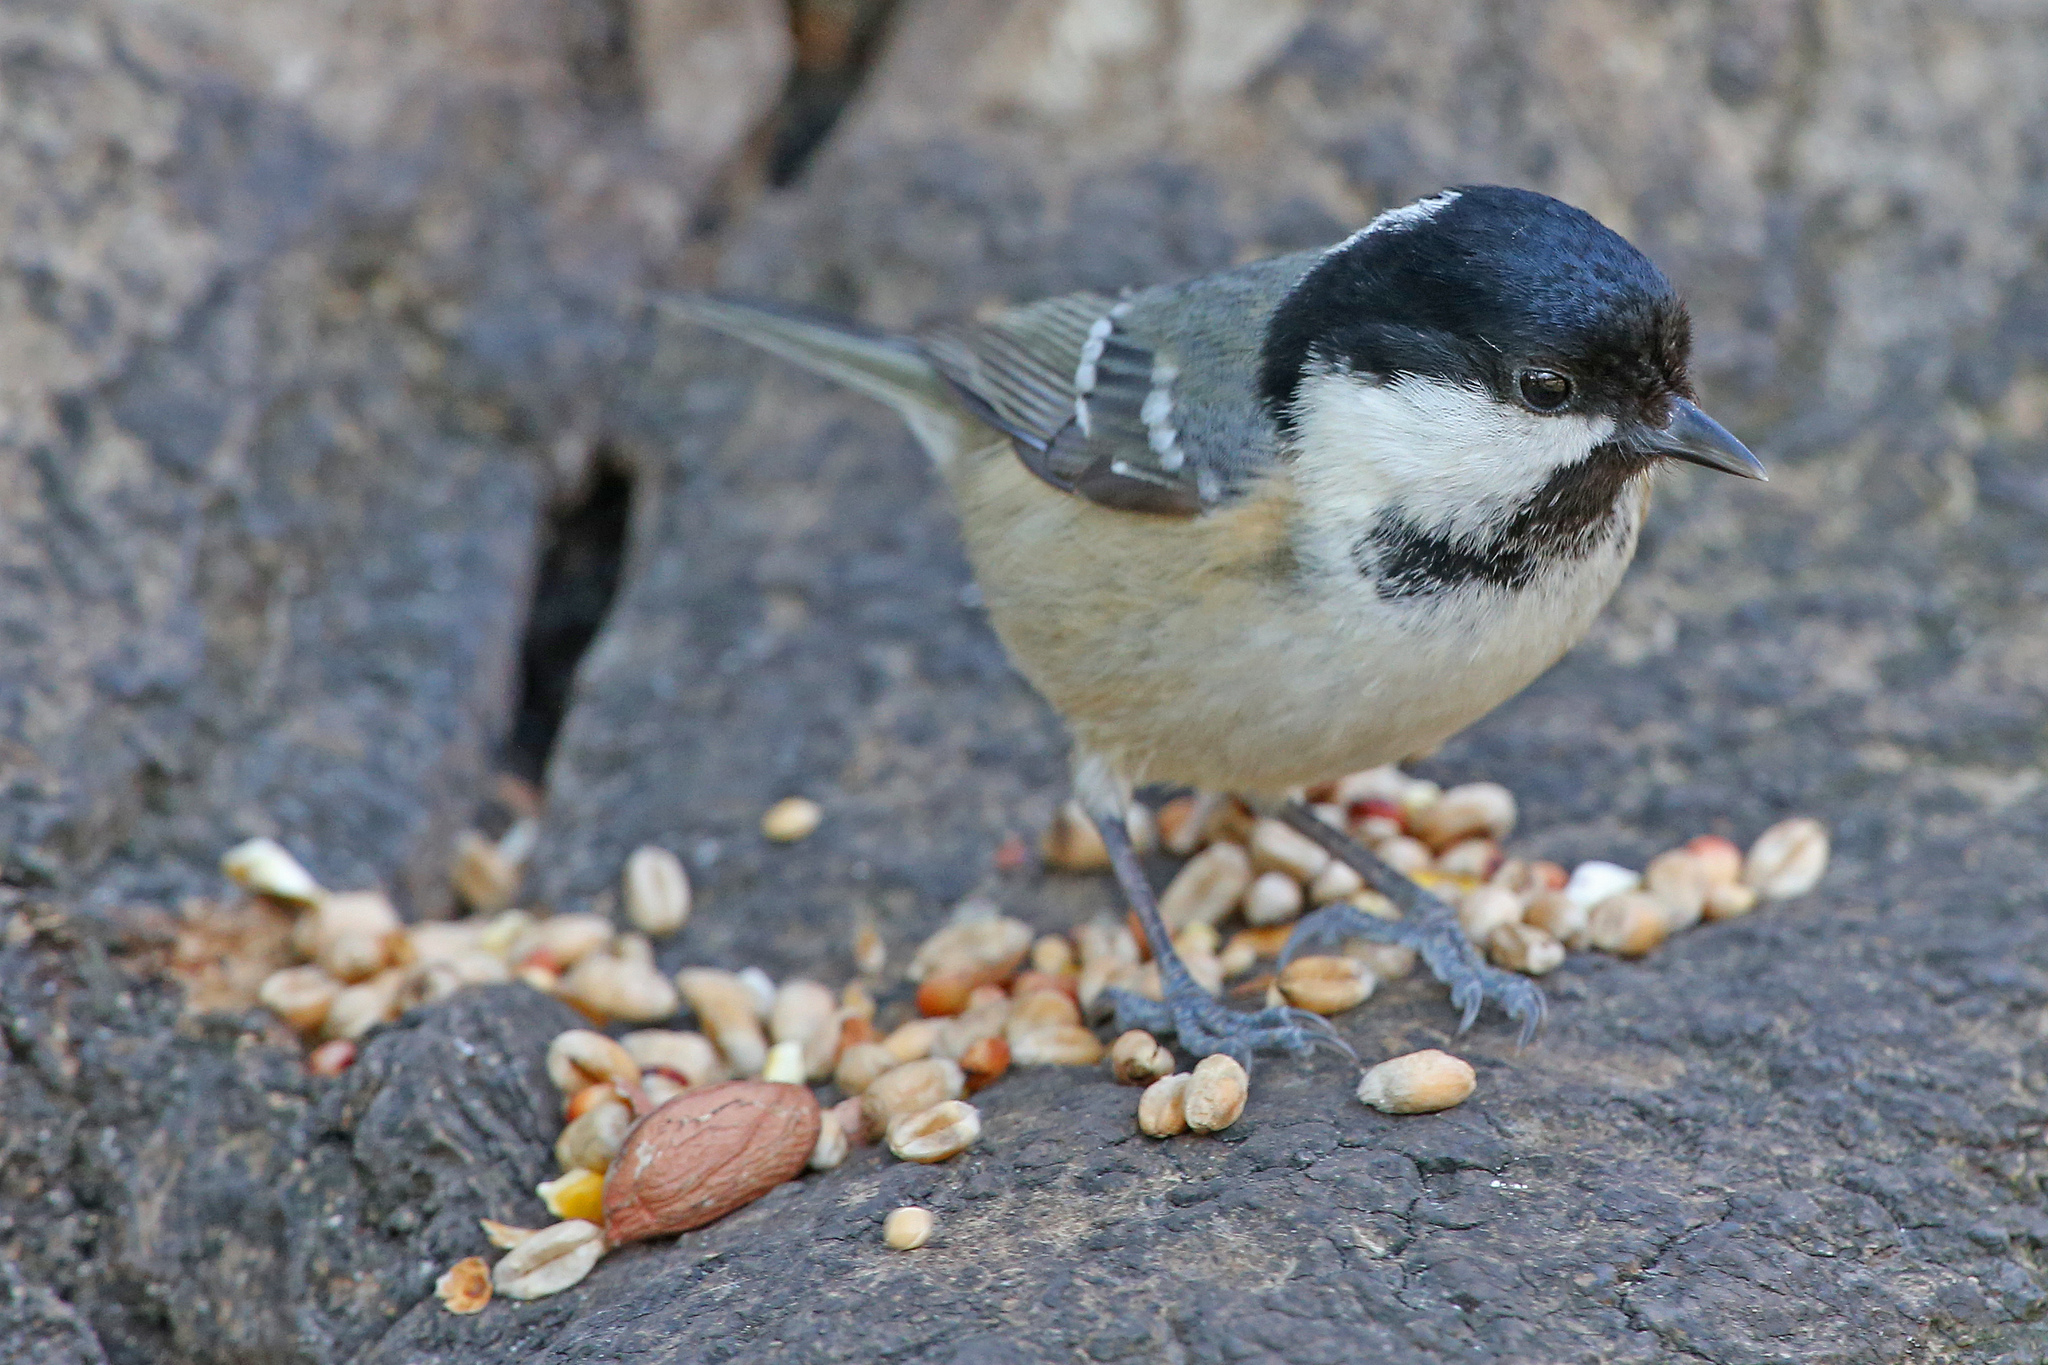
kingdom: Animalia
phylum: Chordata
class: Aves
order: Passeriformes
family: Paridae
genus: Periparus
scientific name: Periparus ater
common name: Coal tit
